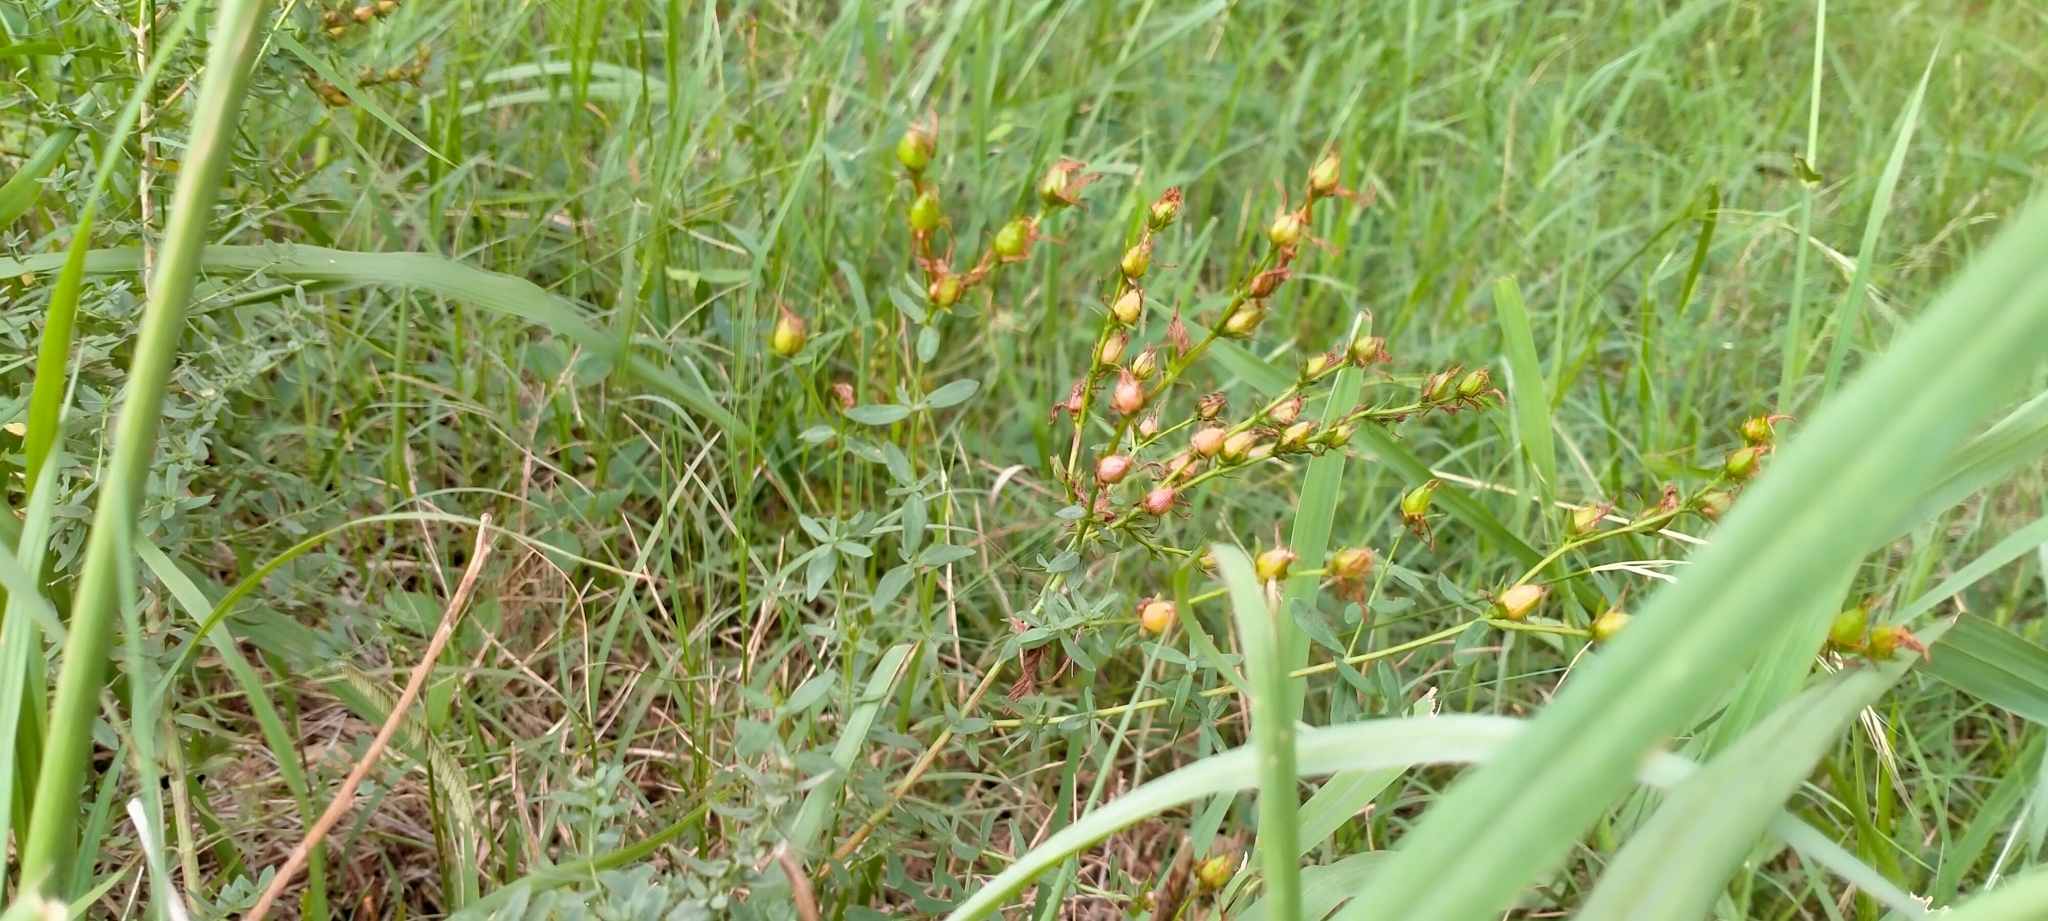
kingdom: Plantae
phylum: Tracheophyta
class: Magnoliopsida
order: Malpighiales
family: Hypericaceae
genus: Hypericum
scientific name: Hypericum perforatum
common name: Common st. johnswort
